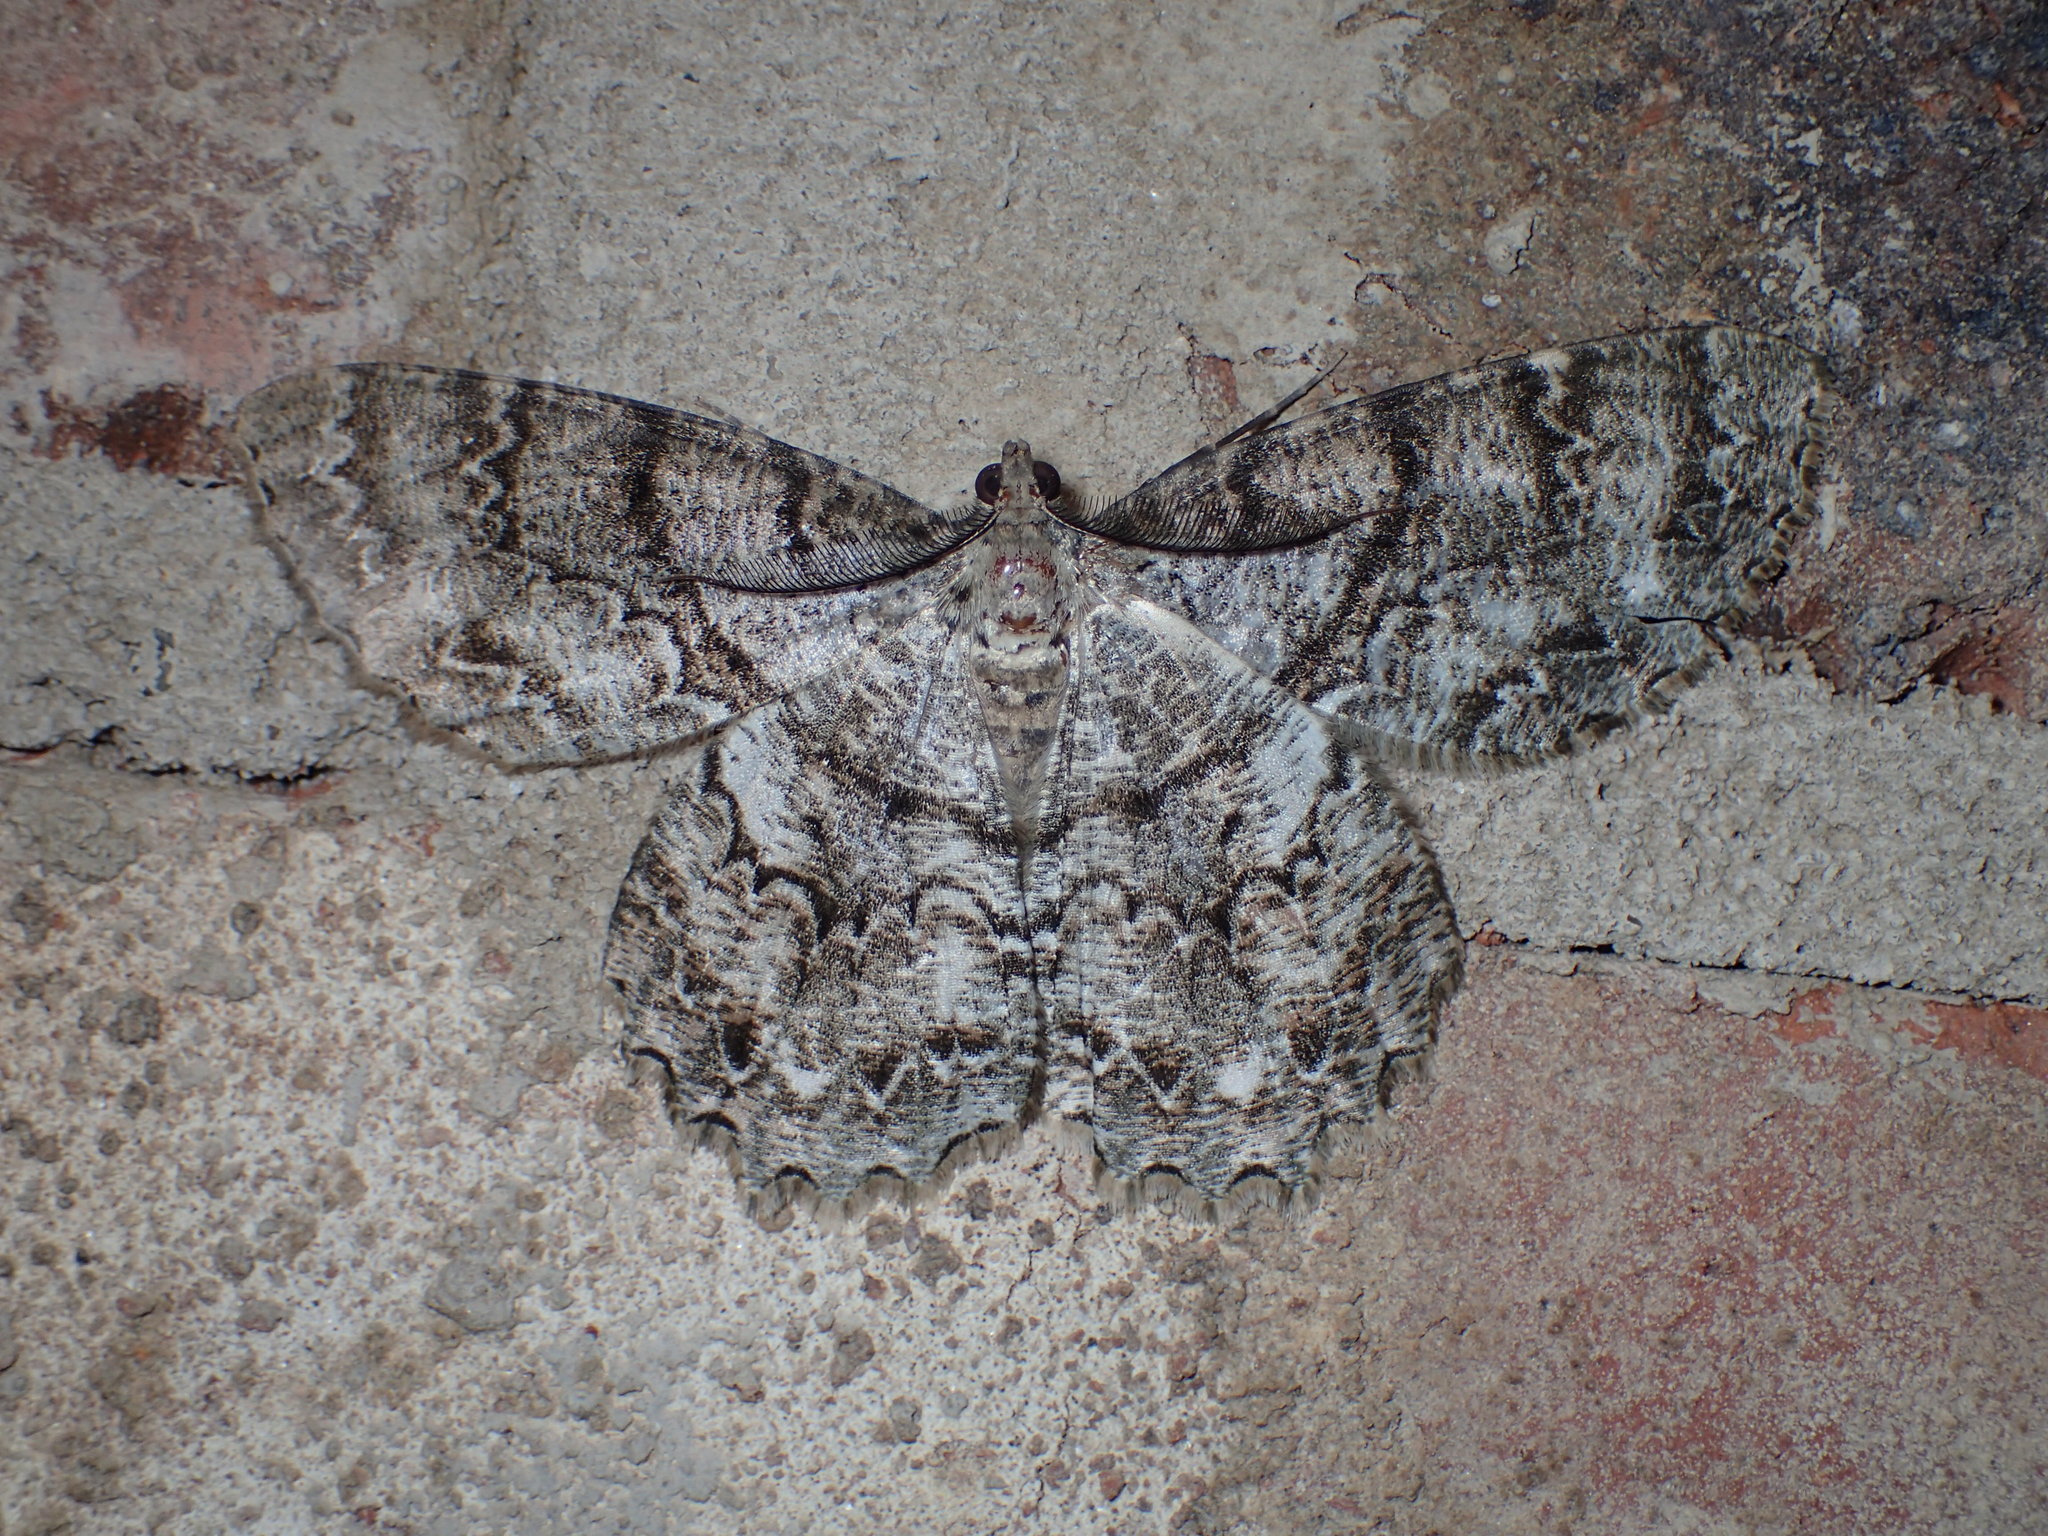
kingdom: Animalia
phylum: Arthropoda
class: Insecta
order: Lepidoptera
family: Geometridae
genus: Epimecis
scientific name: Epimecis hortaria
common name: Tulip-tree beauty
